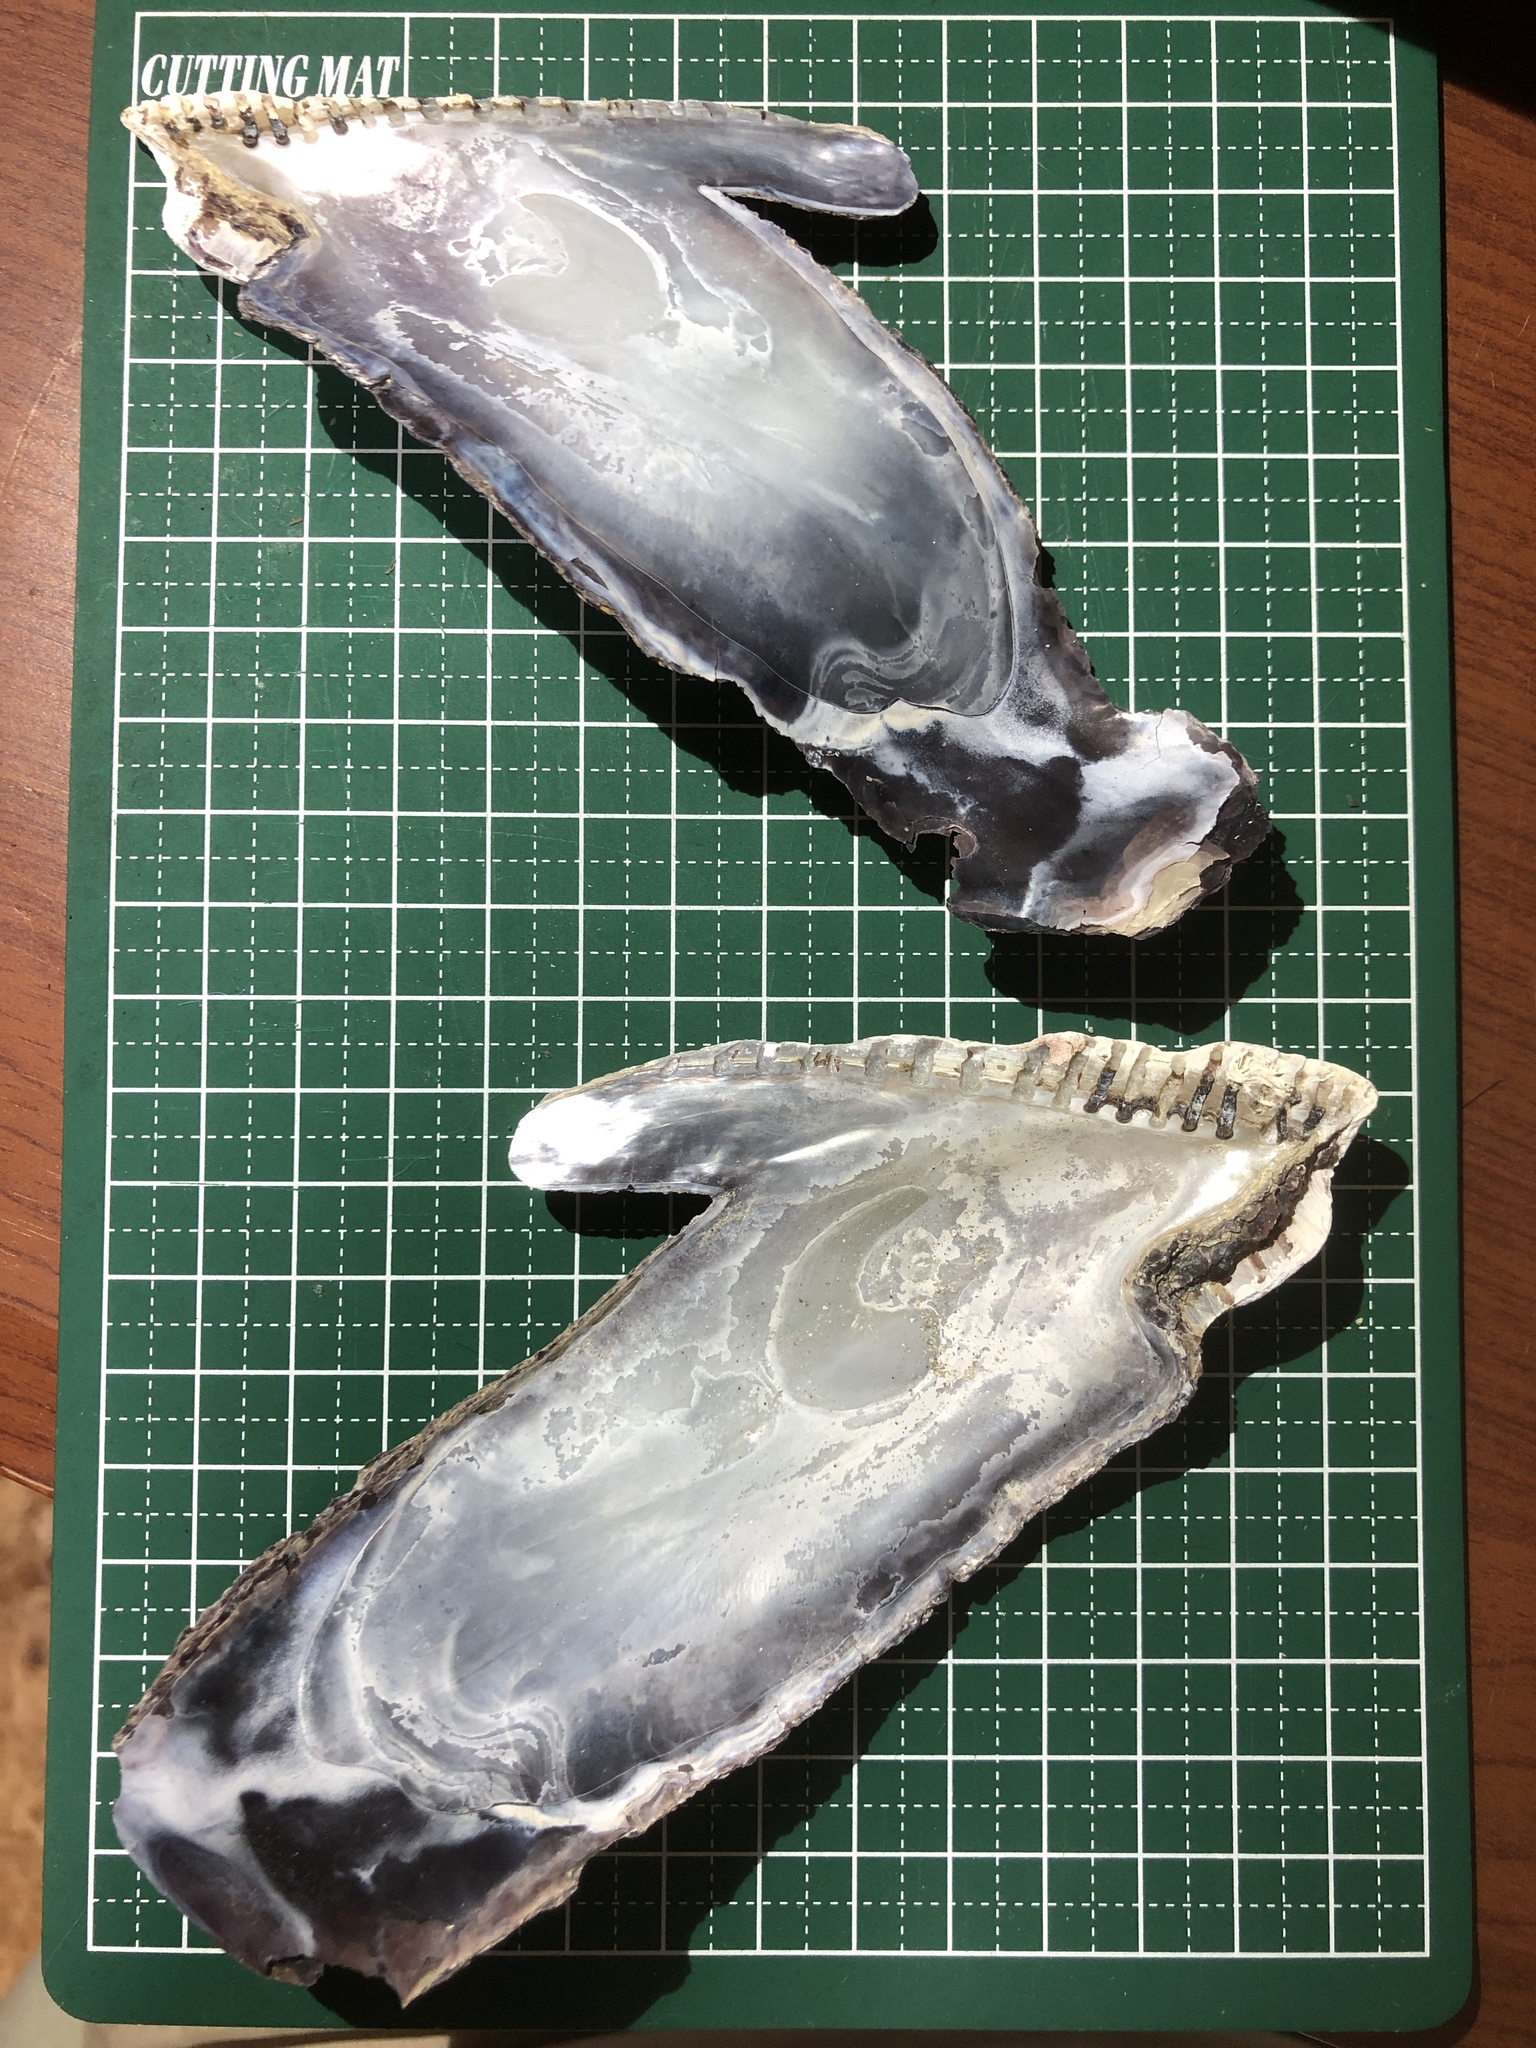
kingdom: Animalia
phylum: Mollusca
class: Bivalvia
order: Ostreida
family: Isognomonidae
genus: Isognomon
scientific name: Isognomon isognomum
